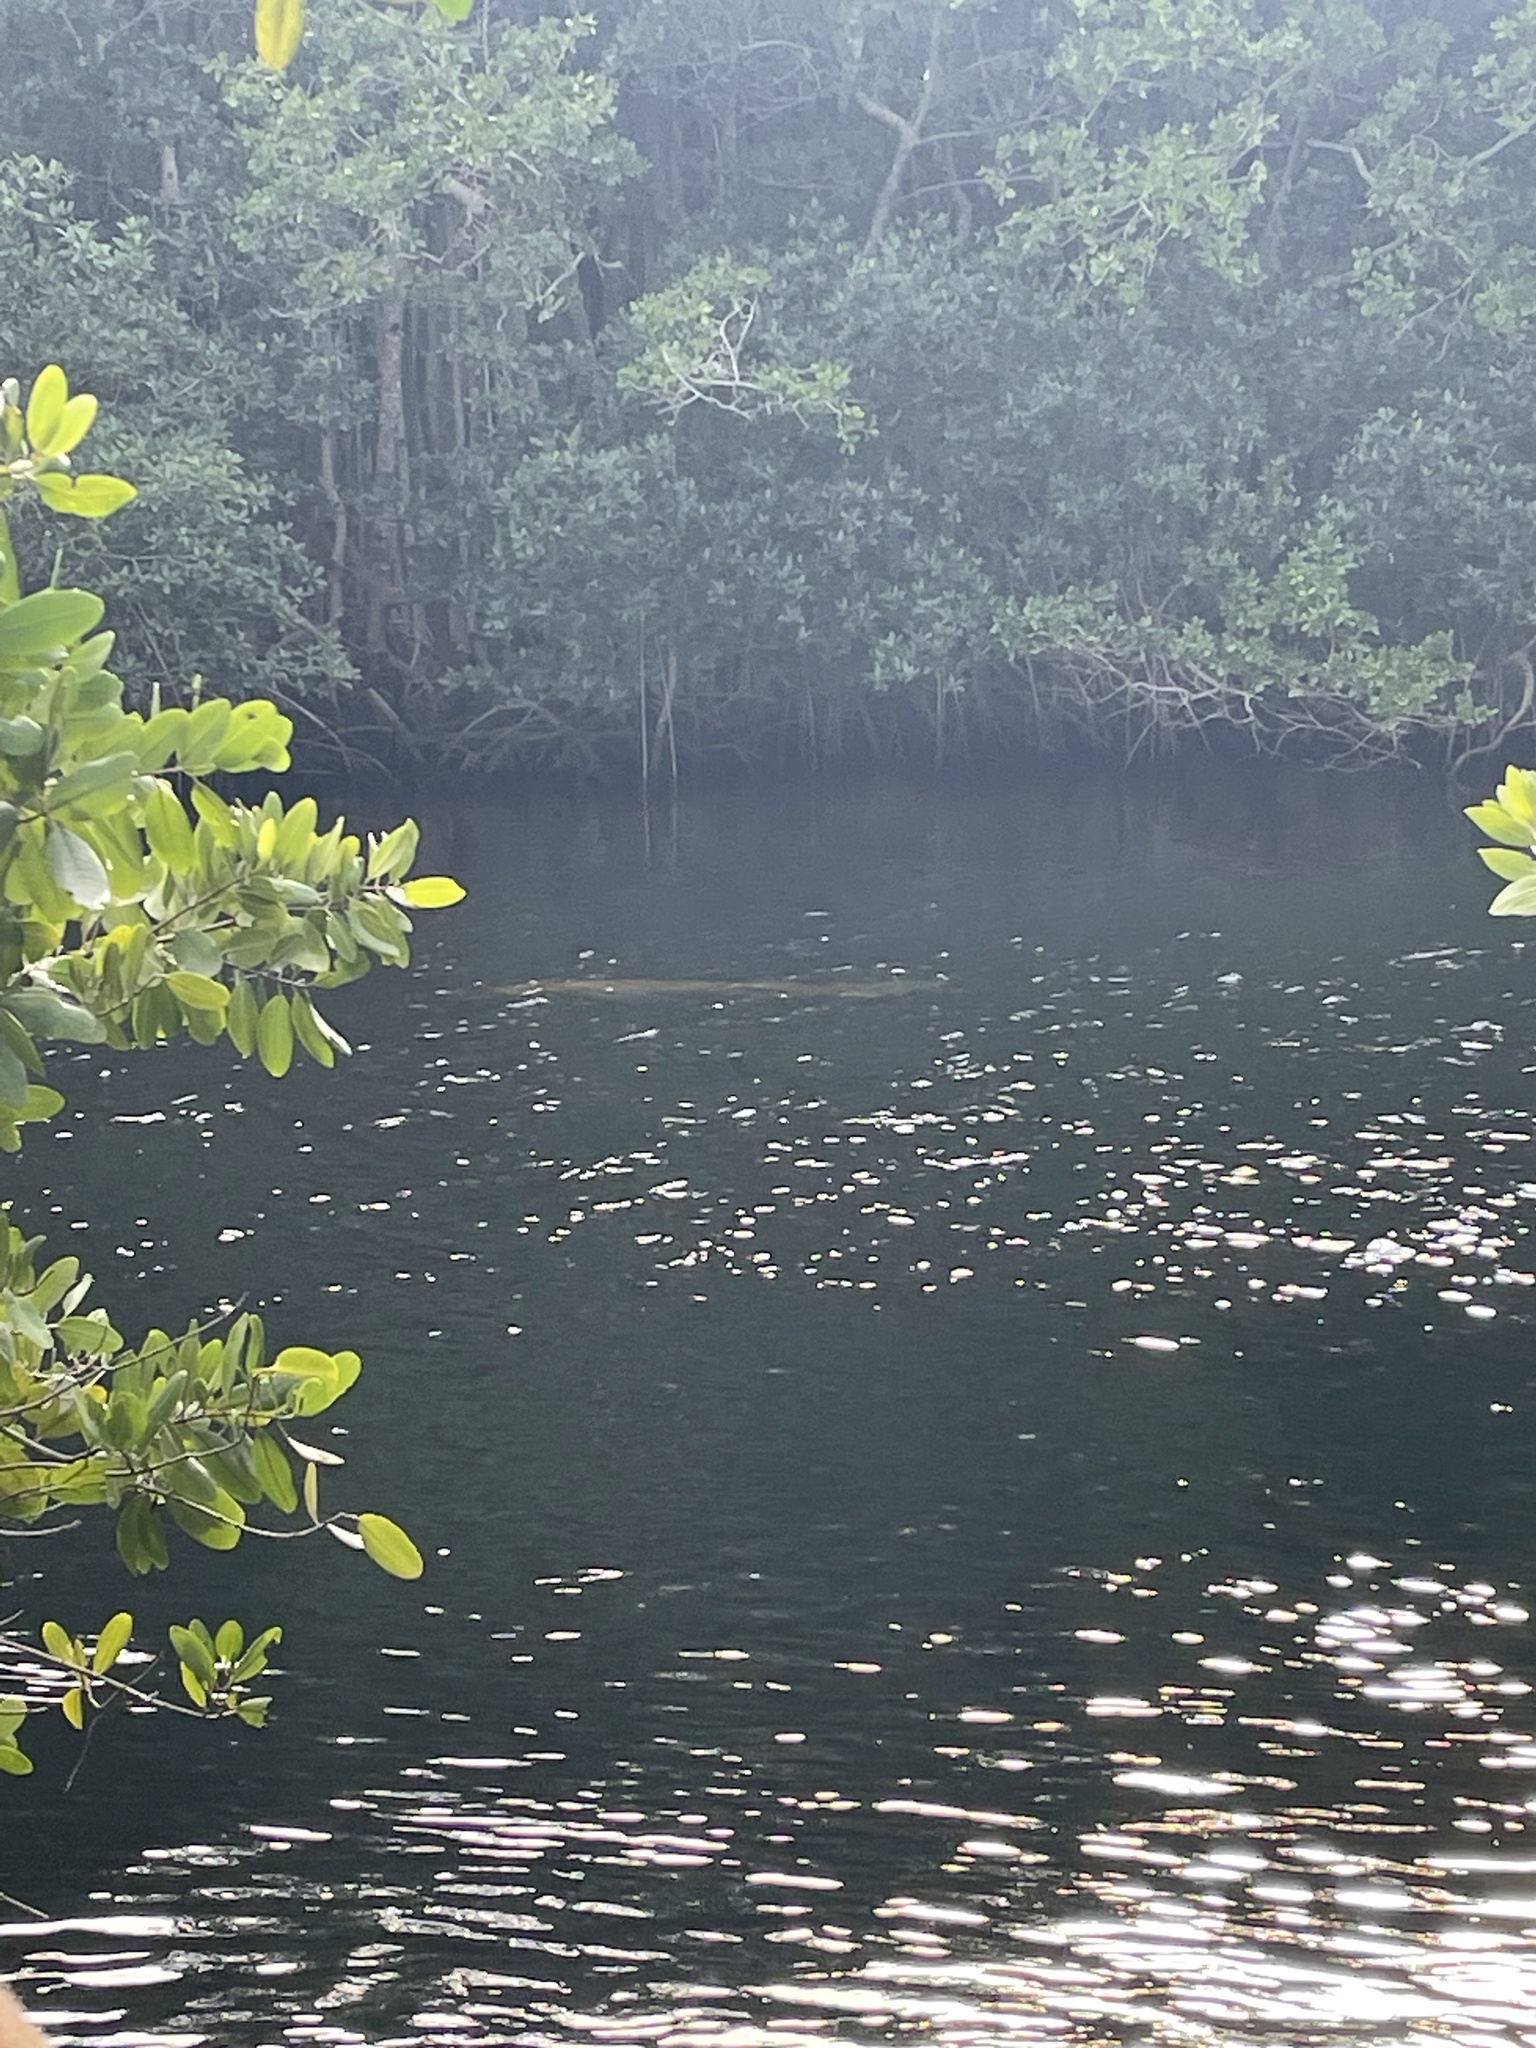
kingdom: Animalia
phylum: Chordata
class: Mammalia
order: Sirenia
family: Trichechidae
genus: Trichechus
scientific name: Trichechus manatus
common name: West indian manatee
